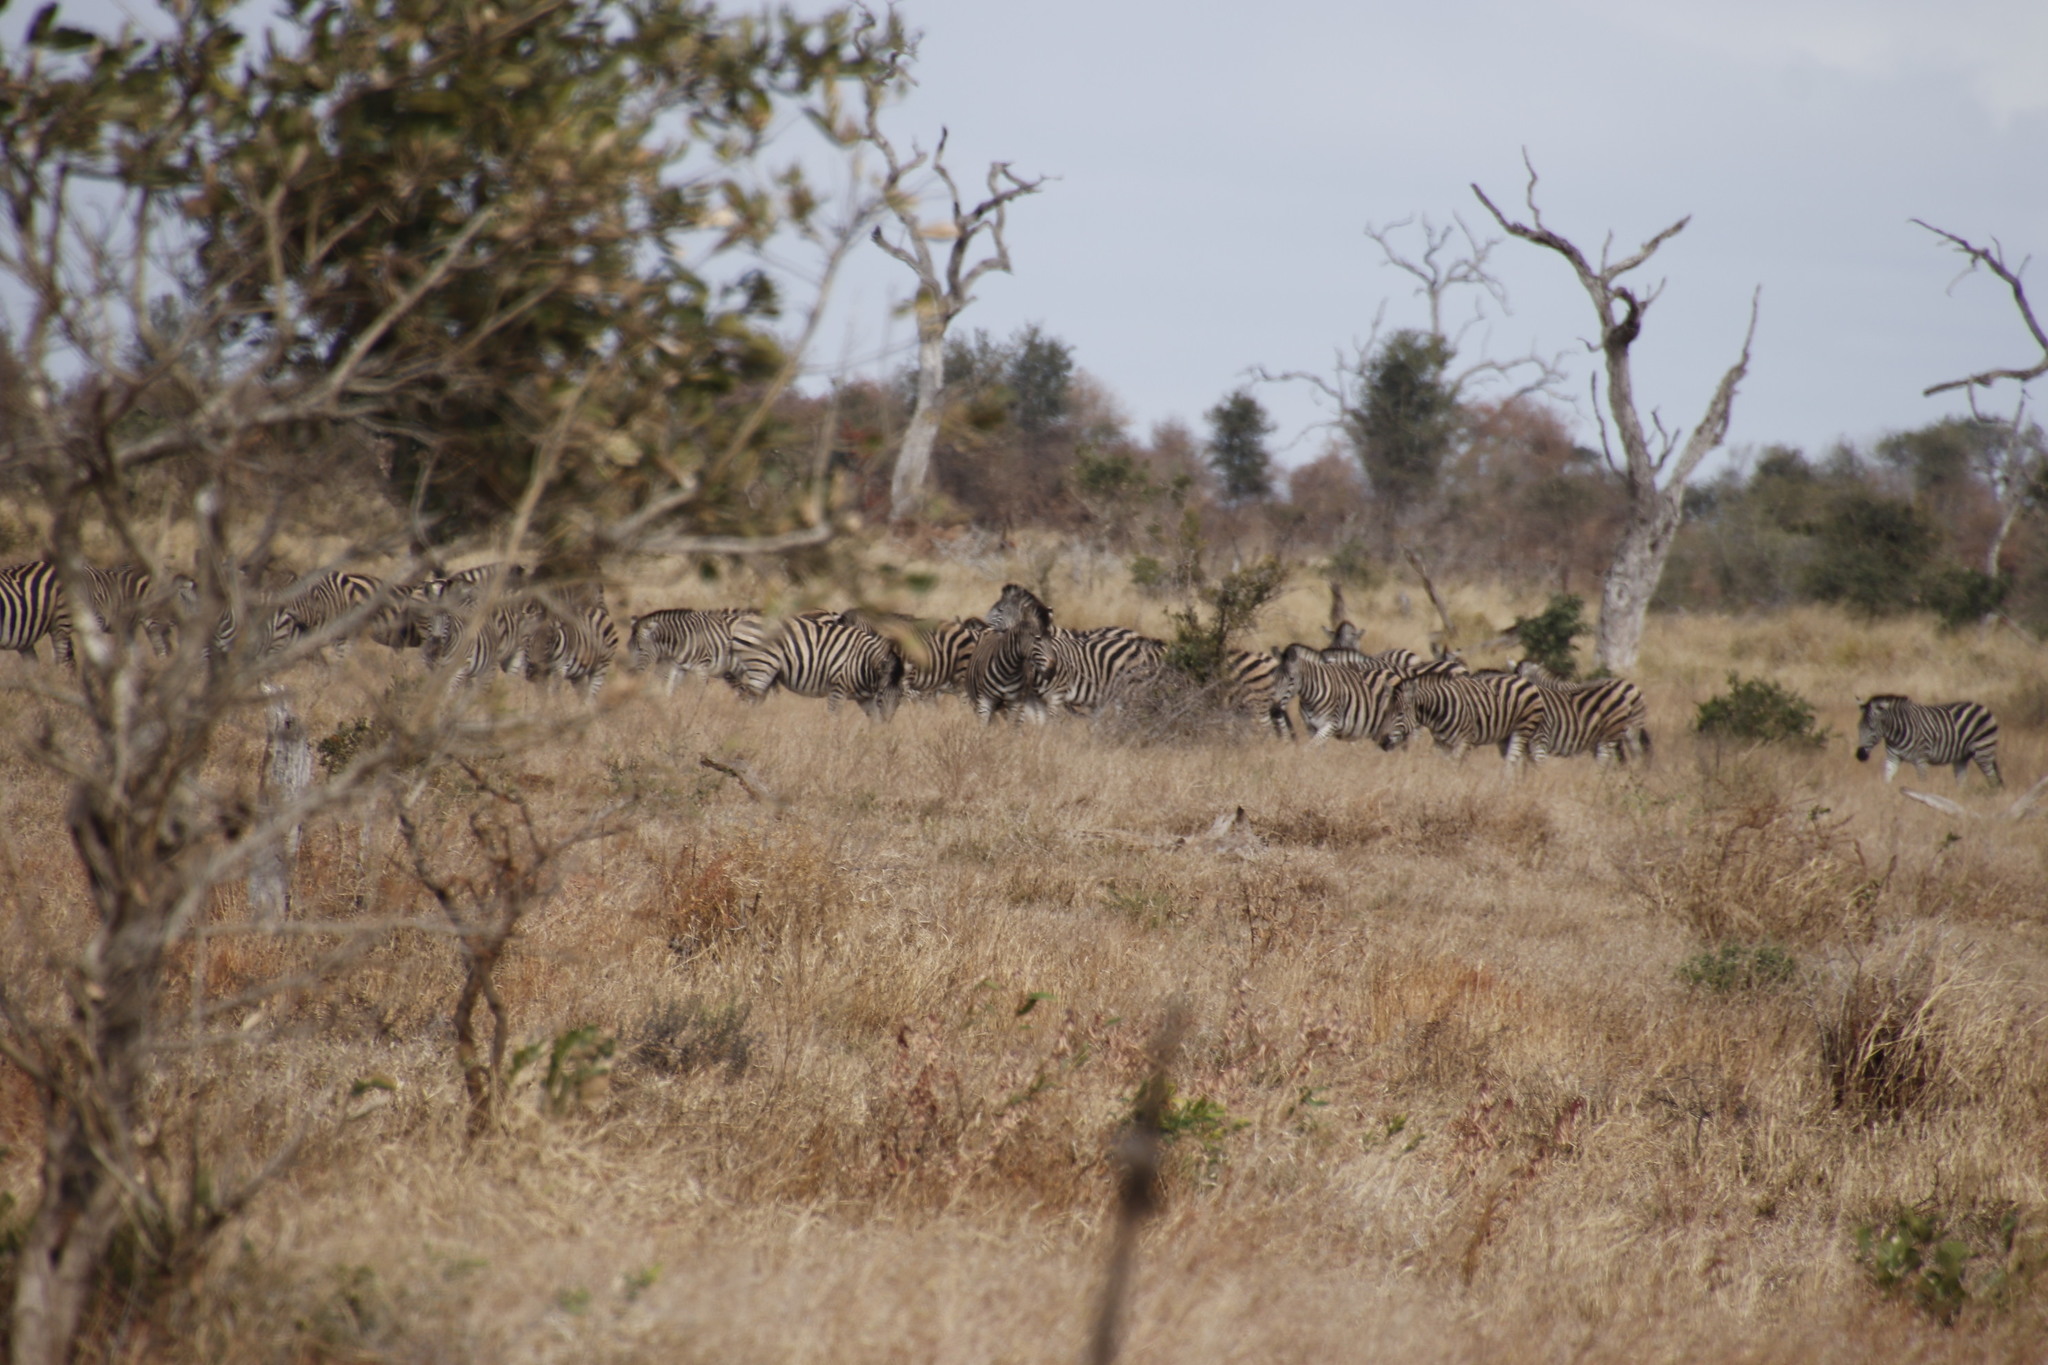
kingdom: Animalia
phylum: Chordata
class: Mammalia
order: Perissodactyla
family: Equidae
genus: Equus
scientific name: Equus quagga
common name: Plains zebra
